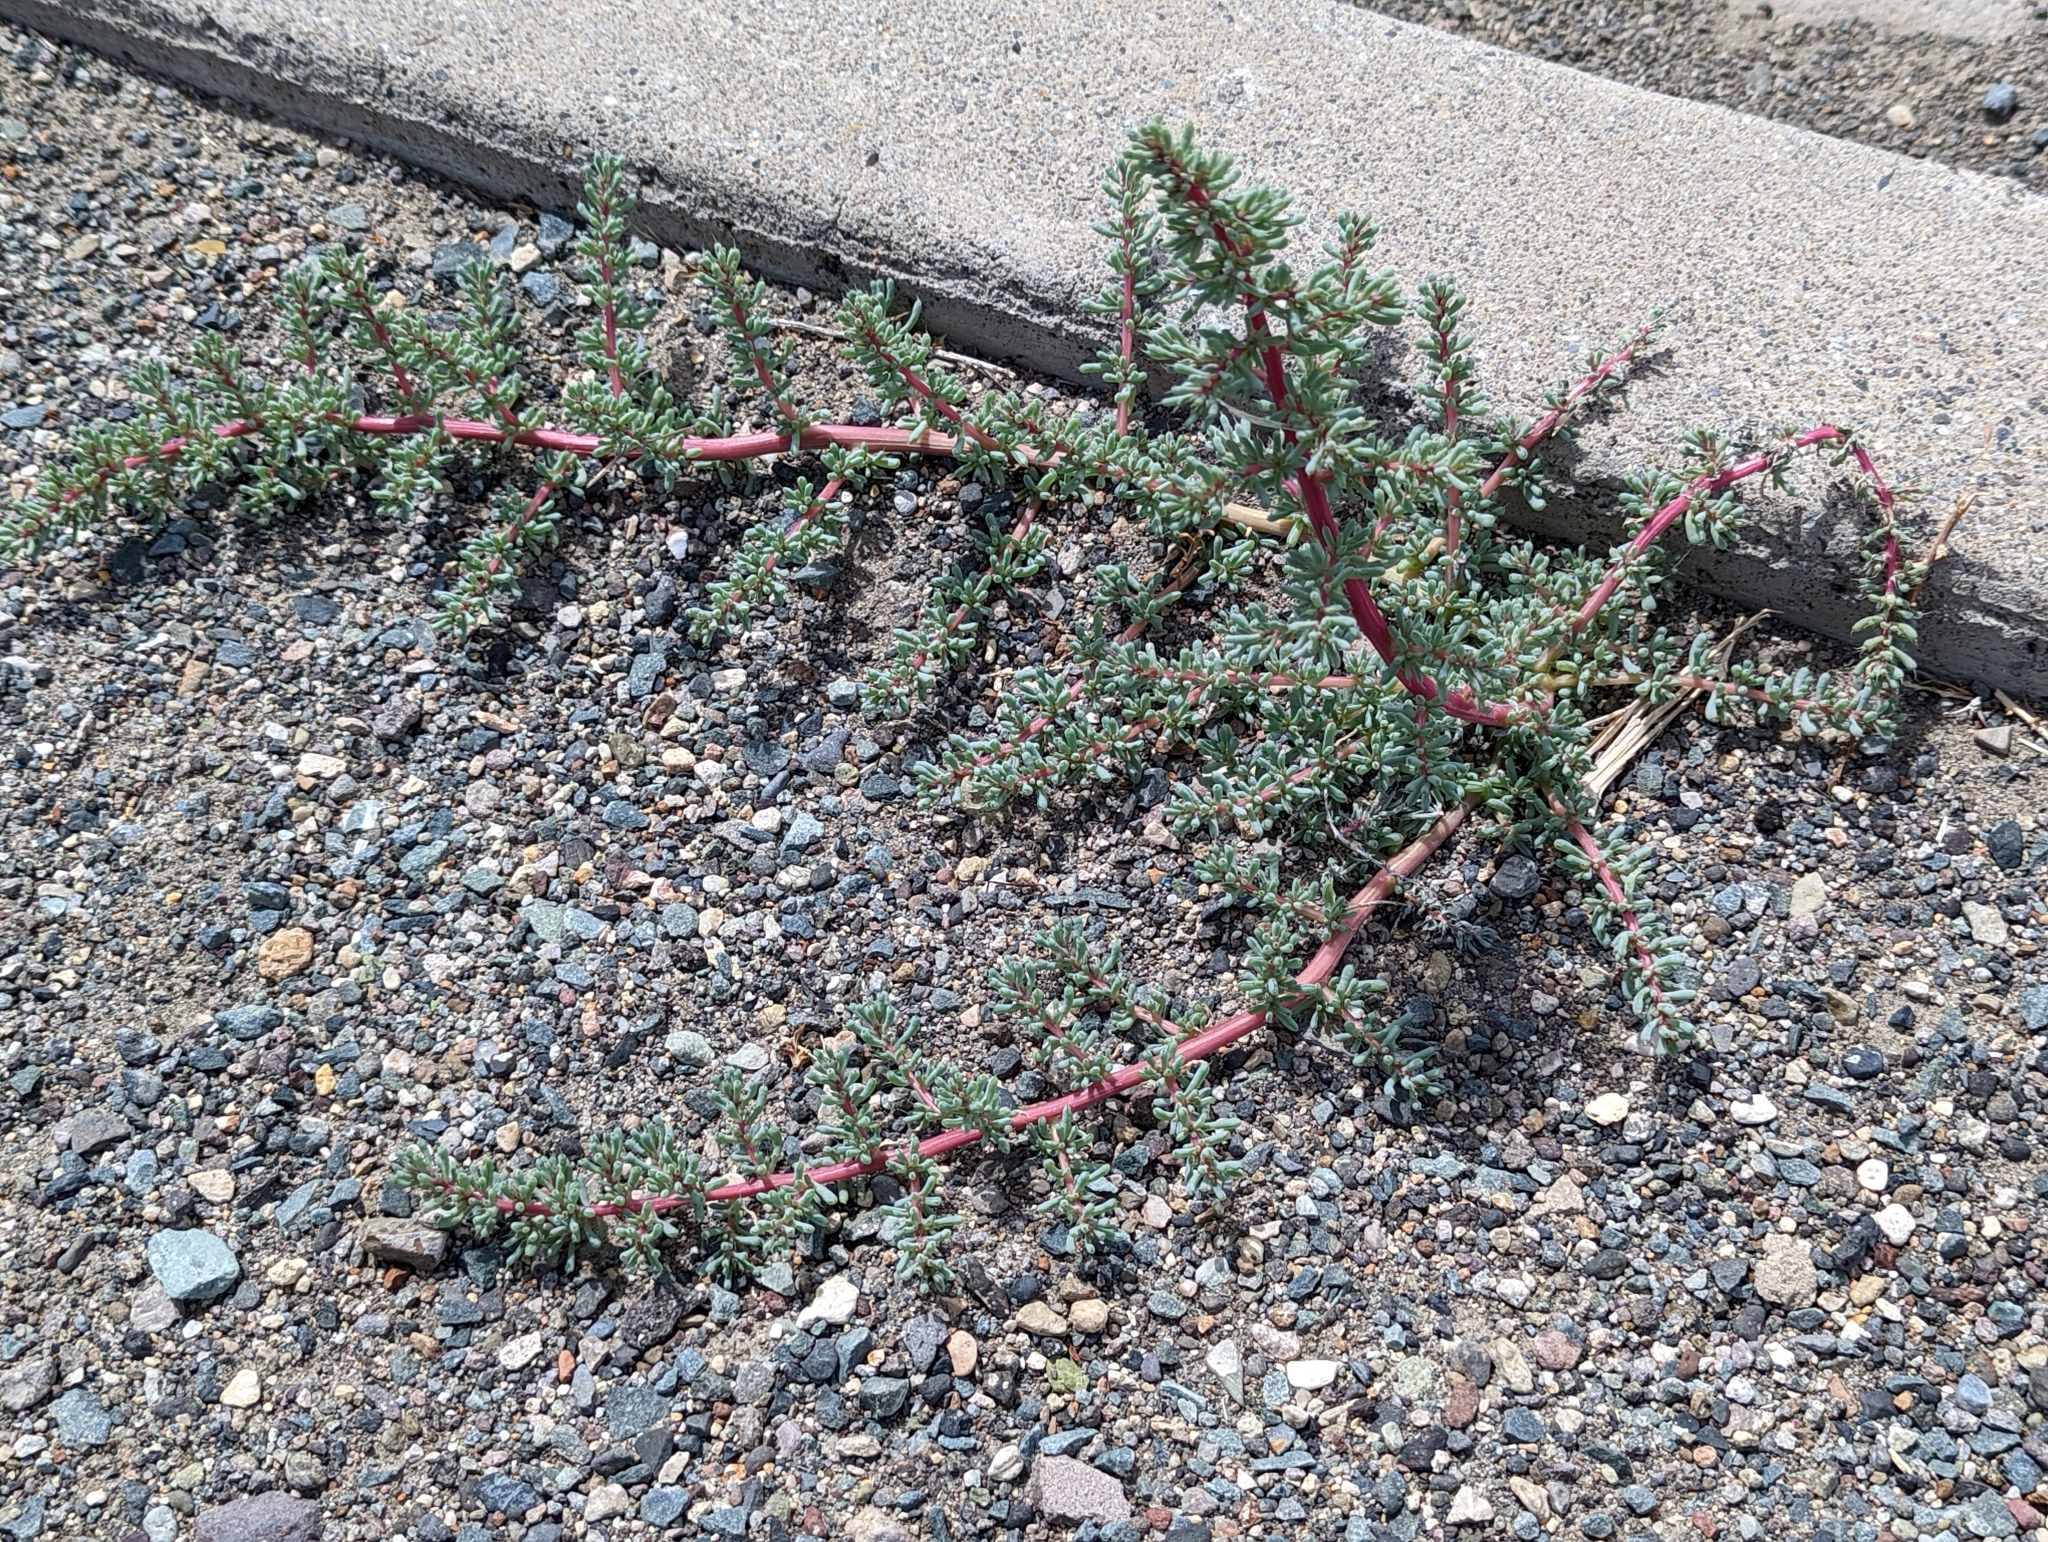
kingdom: Plantae
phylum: Tracheophyta
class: Magnoliopsida
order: Caryophyllales
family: Amaranthaceae
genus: Halogeton
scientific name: Halogeton glomeratus
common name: Saltlover
